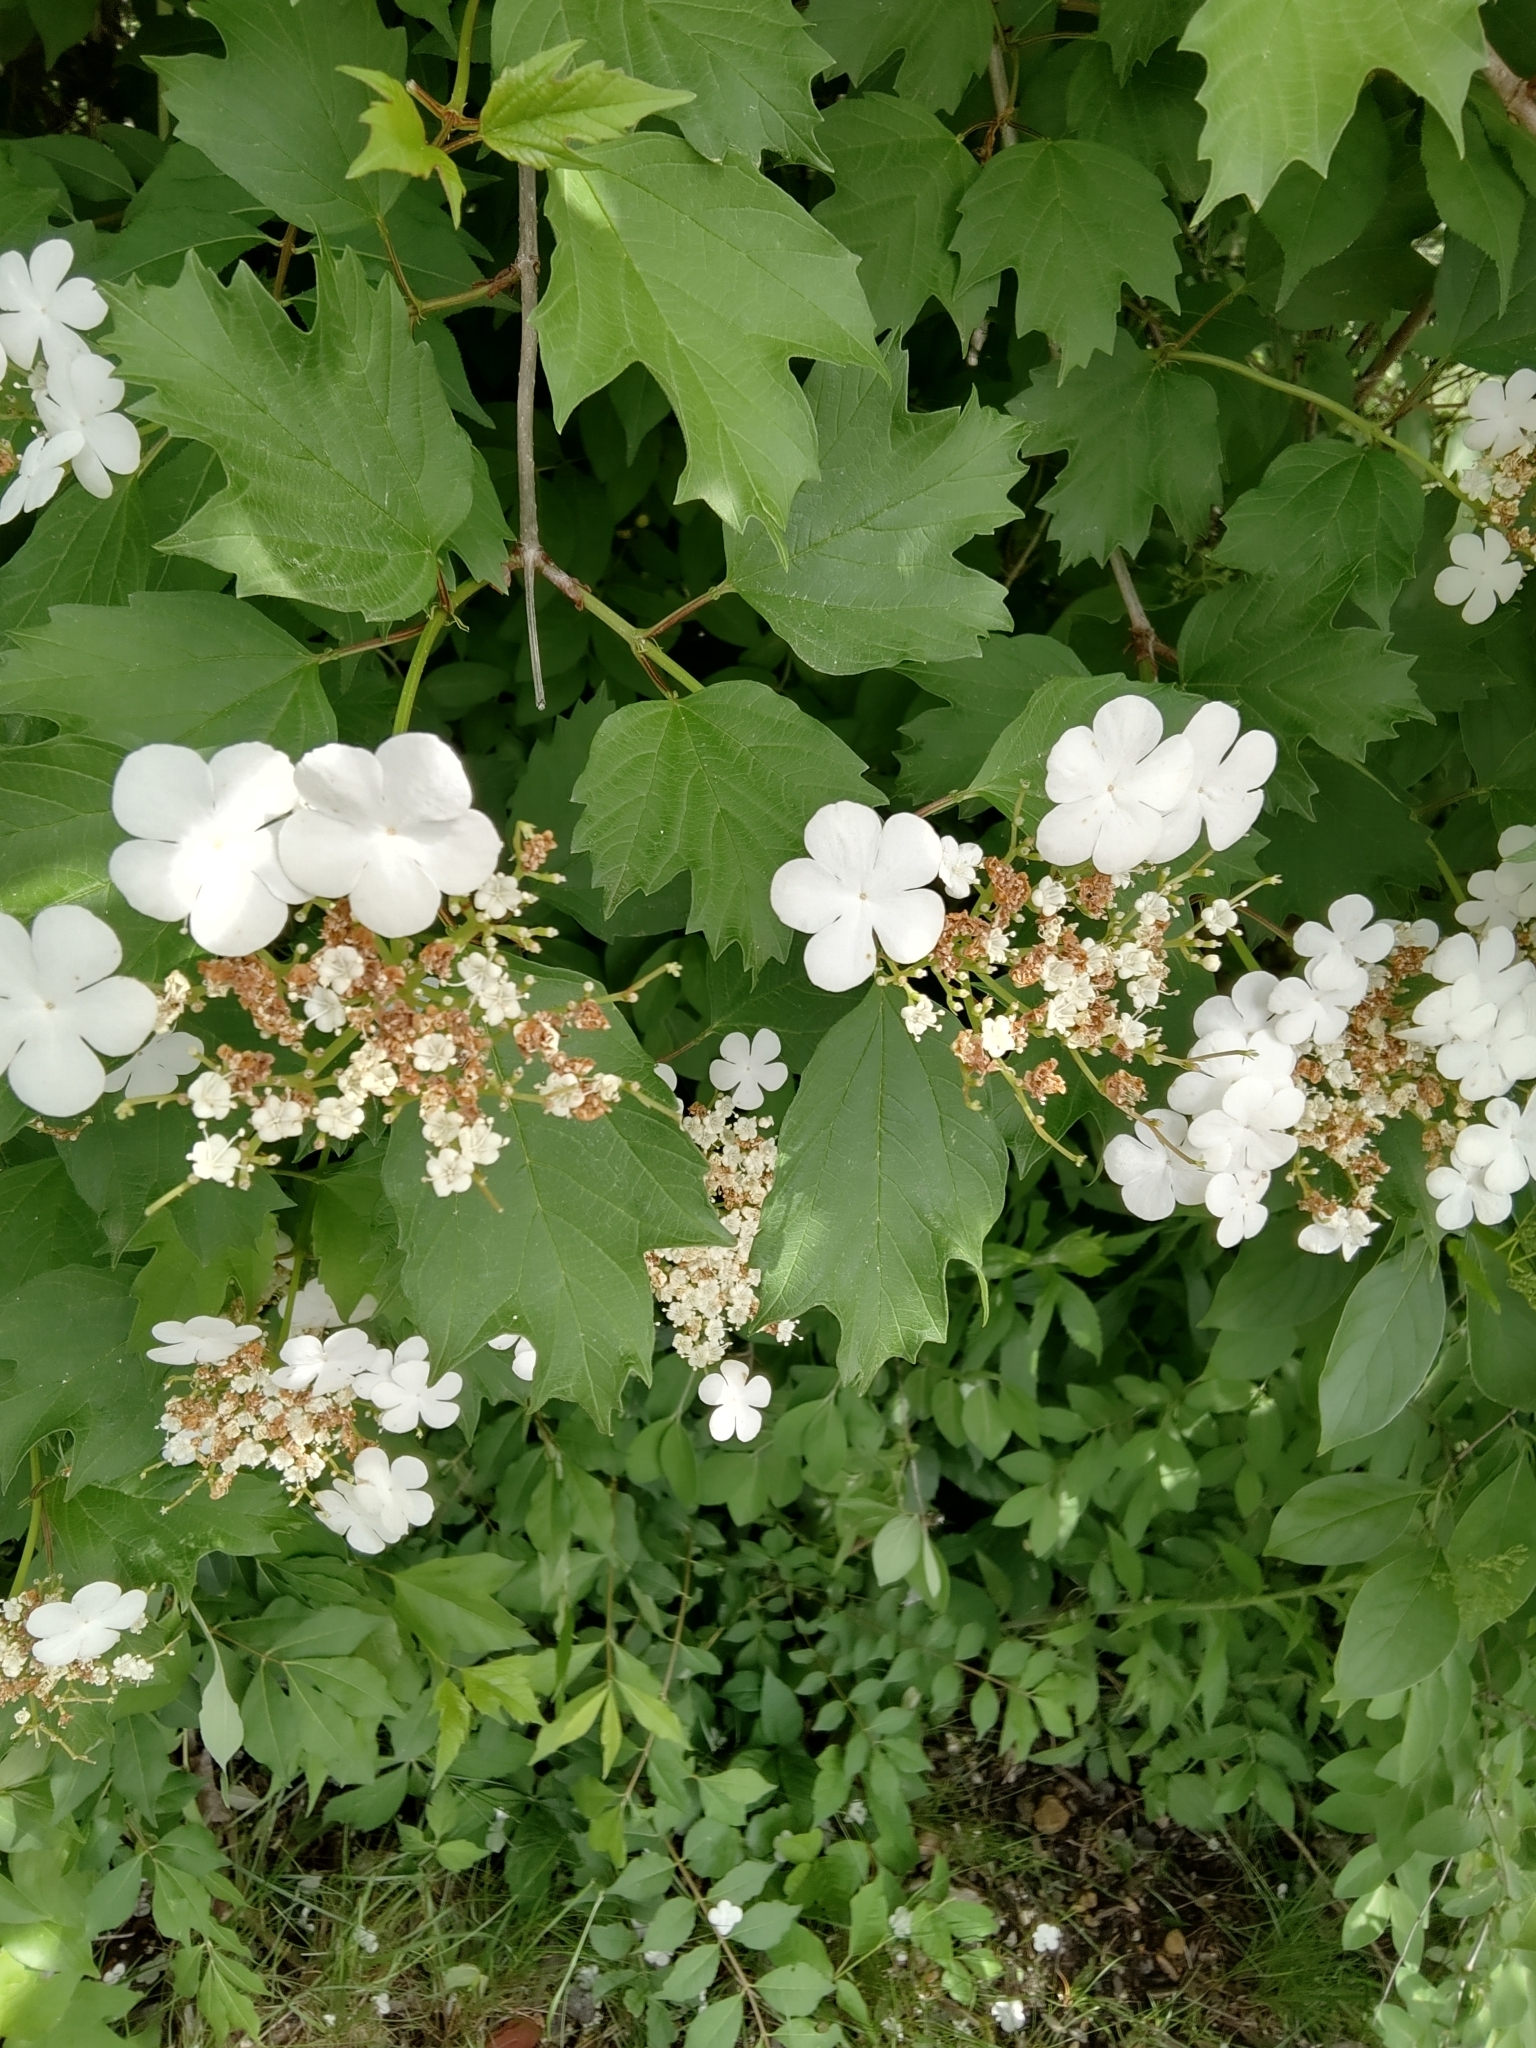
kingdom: Plantae
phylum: Tracheophyta
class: Magnoliopsida
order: Dipsacales
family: Viburnaceae
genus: Viburnum
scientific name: Viburnum opulus
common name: Guelder-rose
